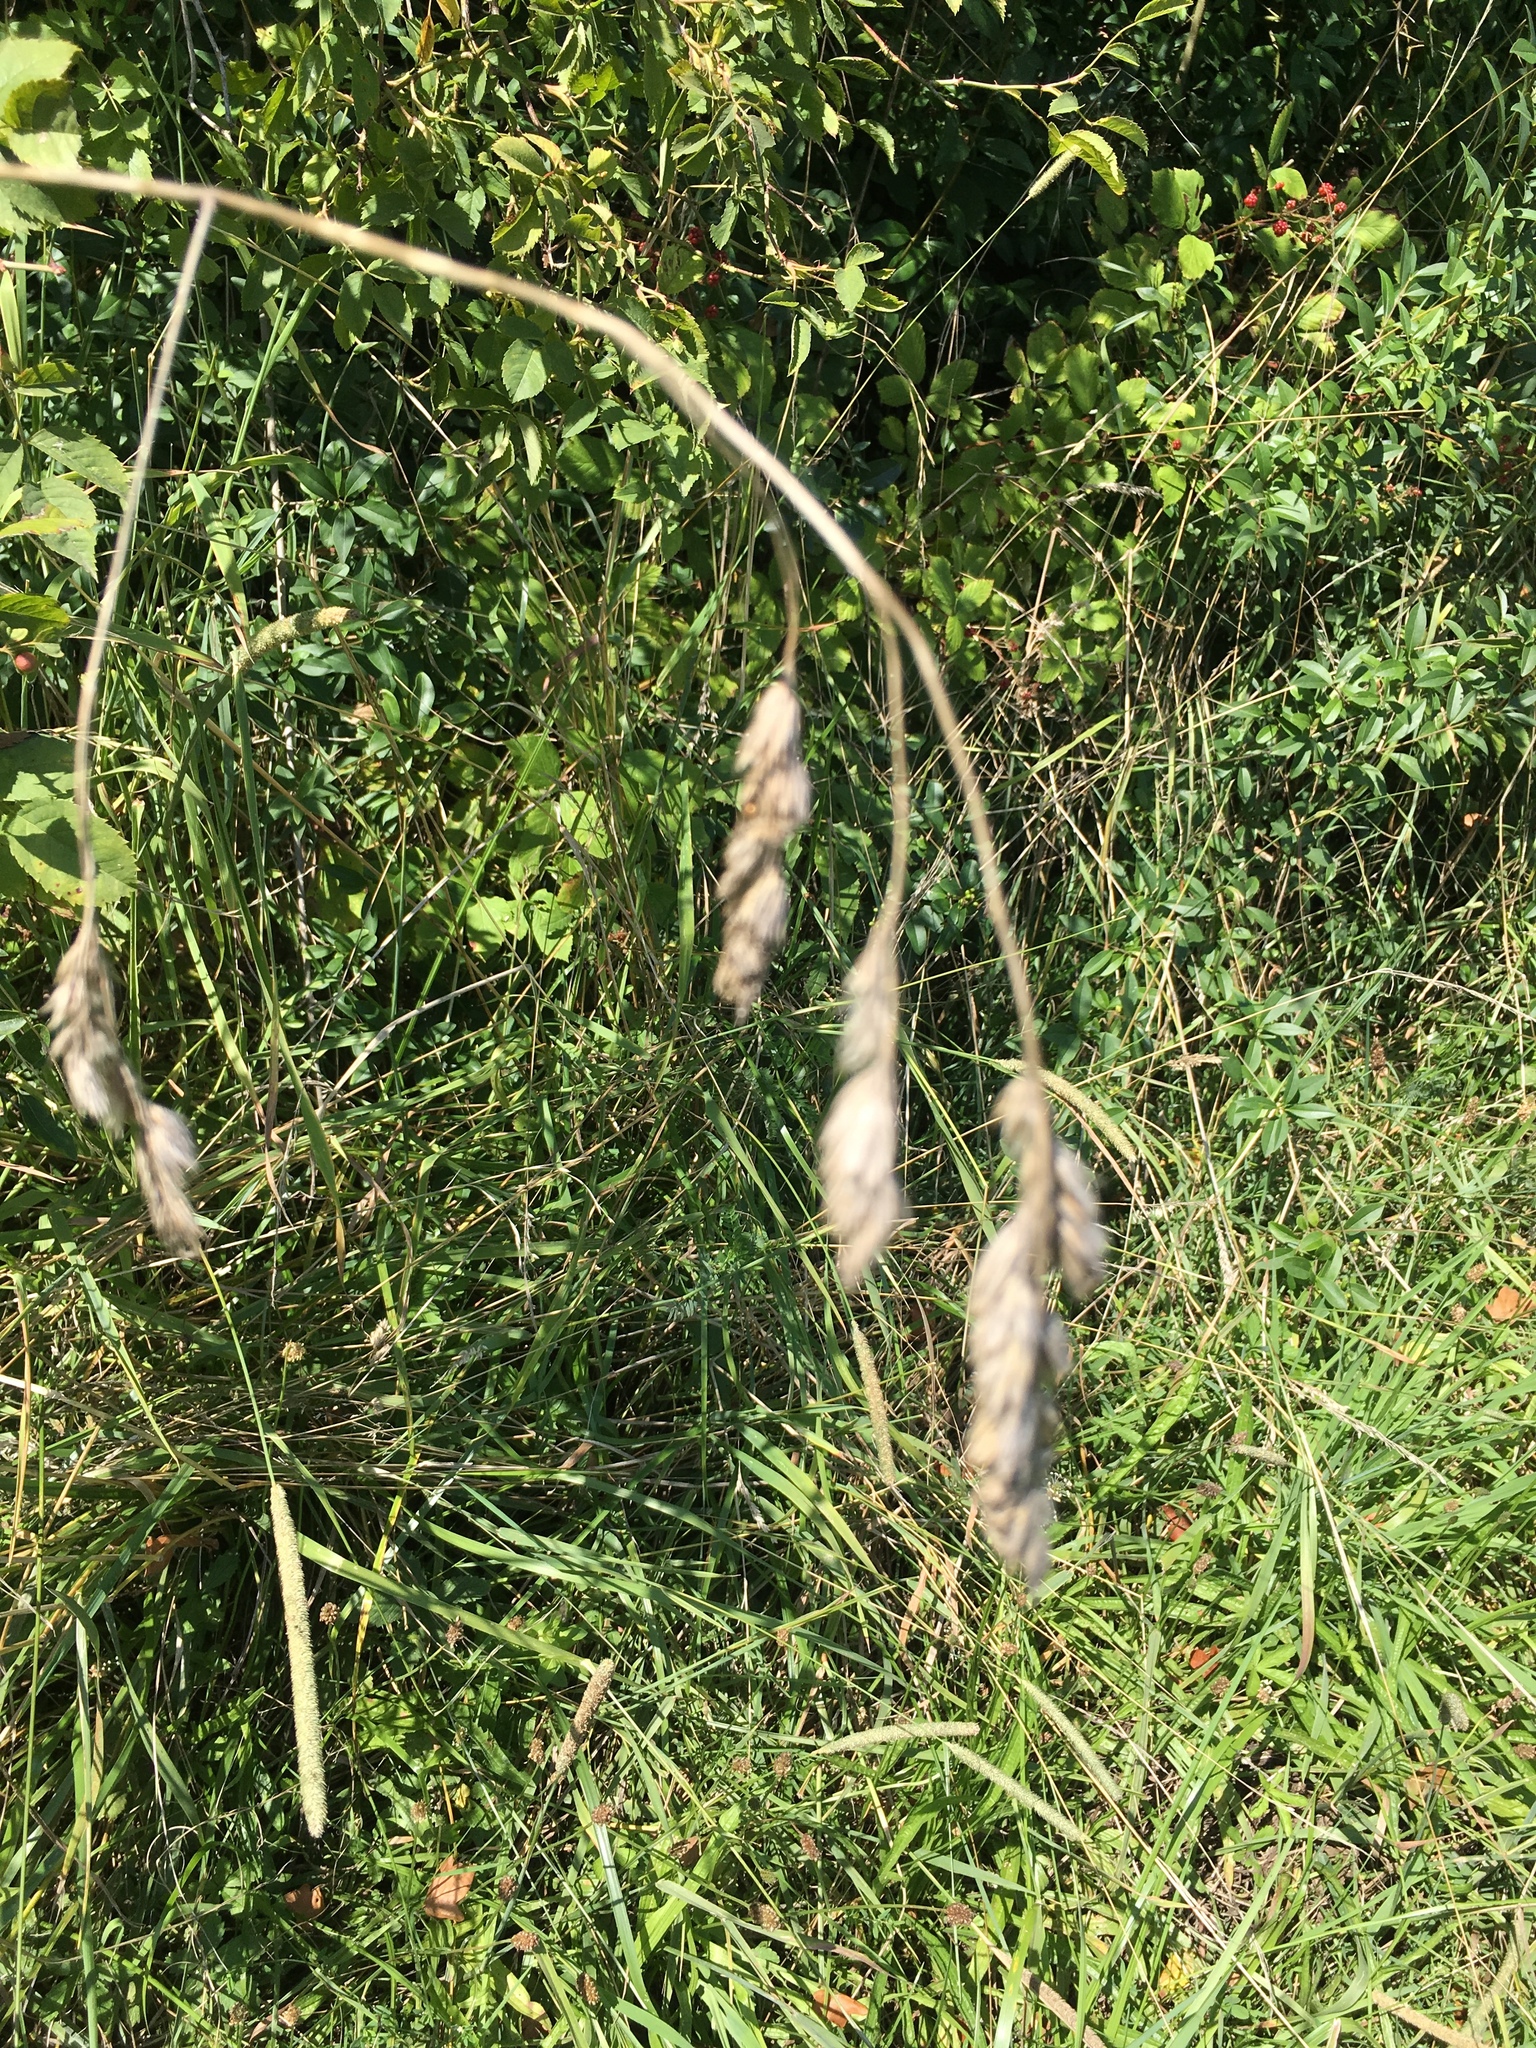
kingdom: Plantae
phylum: Tracheophyta
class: Liliopsida
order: Poales
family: Poaceae
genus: Dactylis
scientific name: Dactylis glomerata
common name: Orchardgrass
